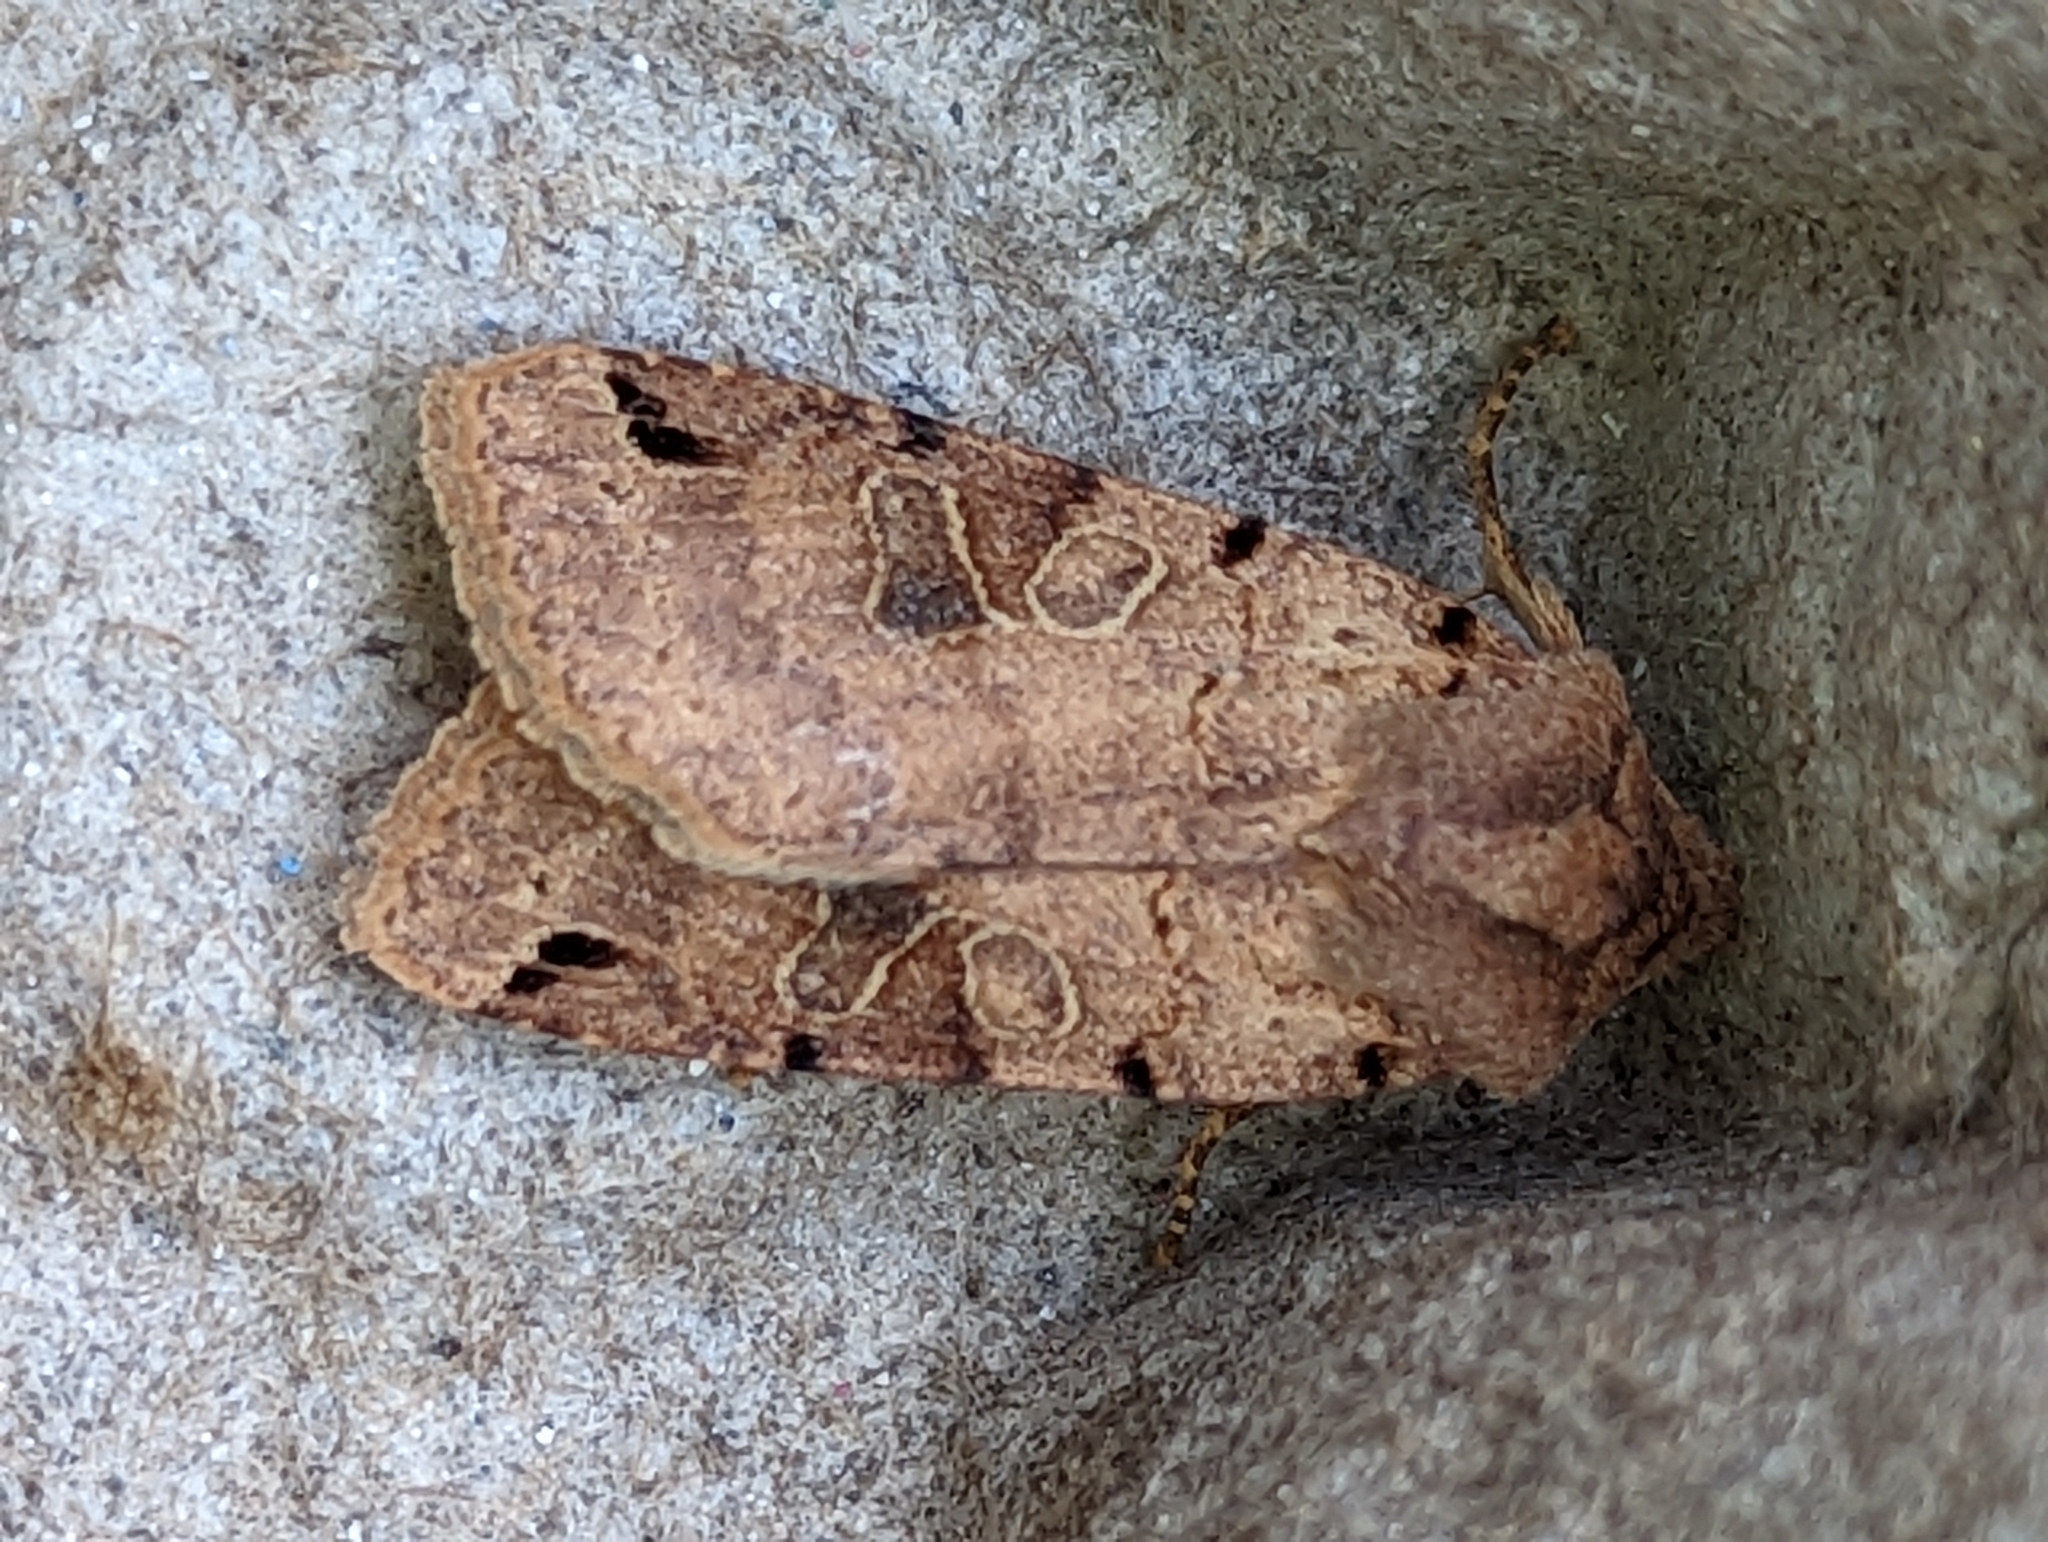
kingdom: Animalia
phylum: Arthropoda
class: Insecta
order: Lepidoptera
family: Noctuidae
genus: Agrochola
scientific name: Agrochola litura
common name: Brown-spot pinion
